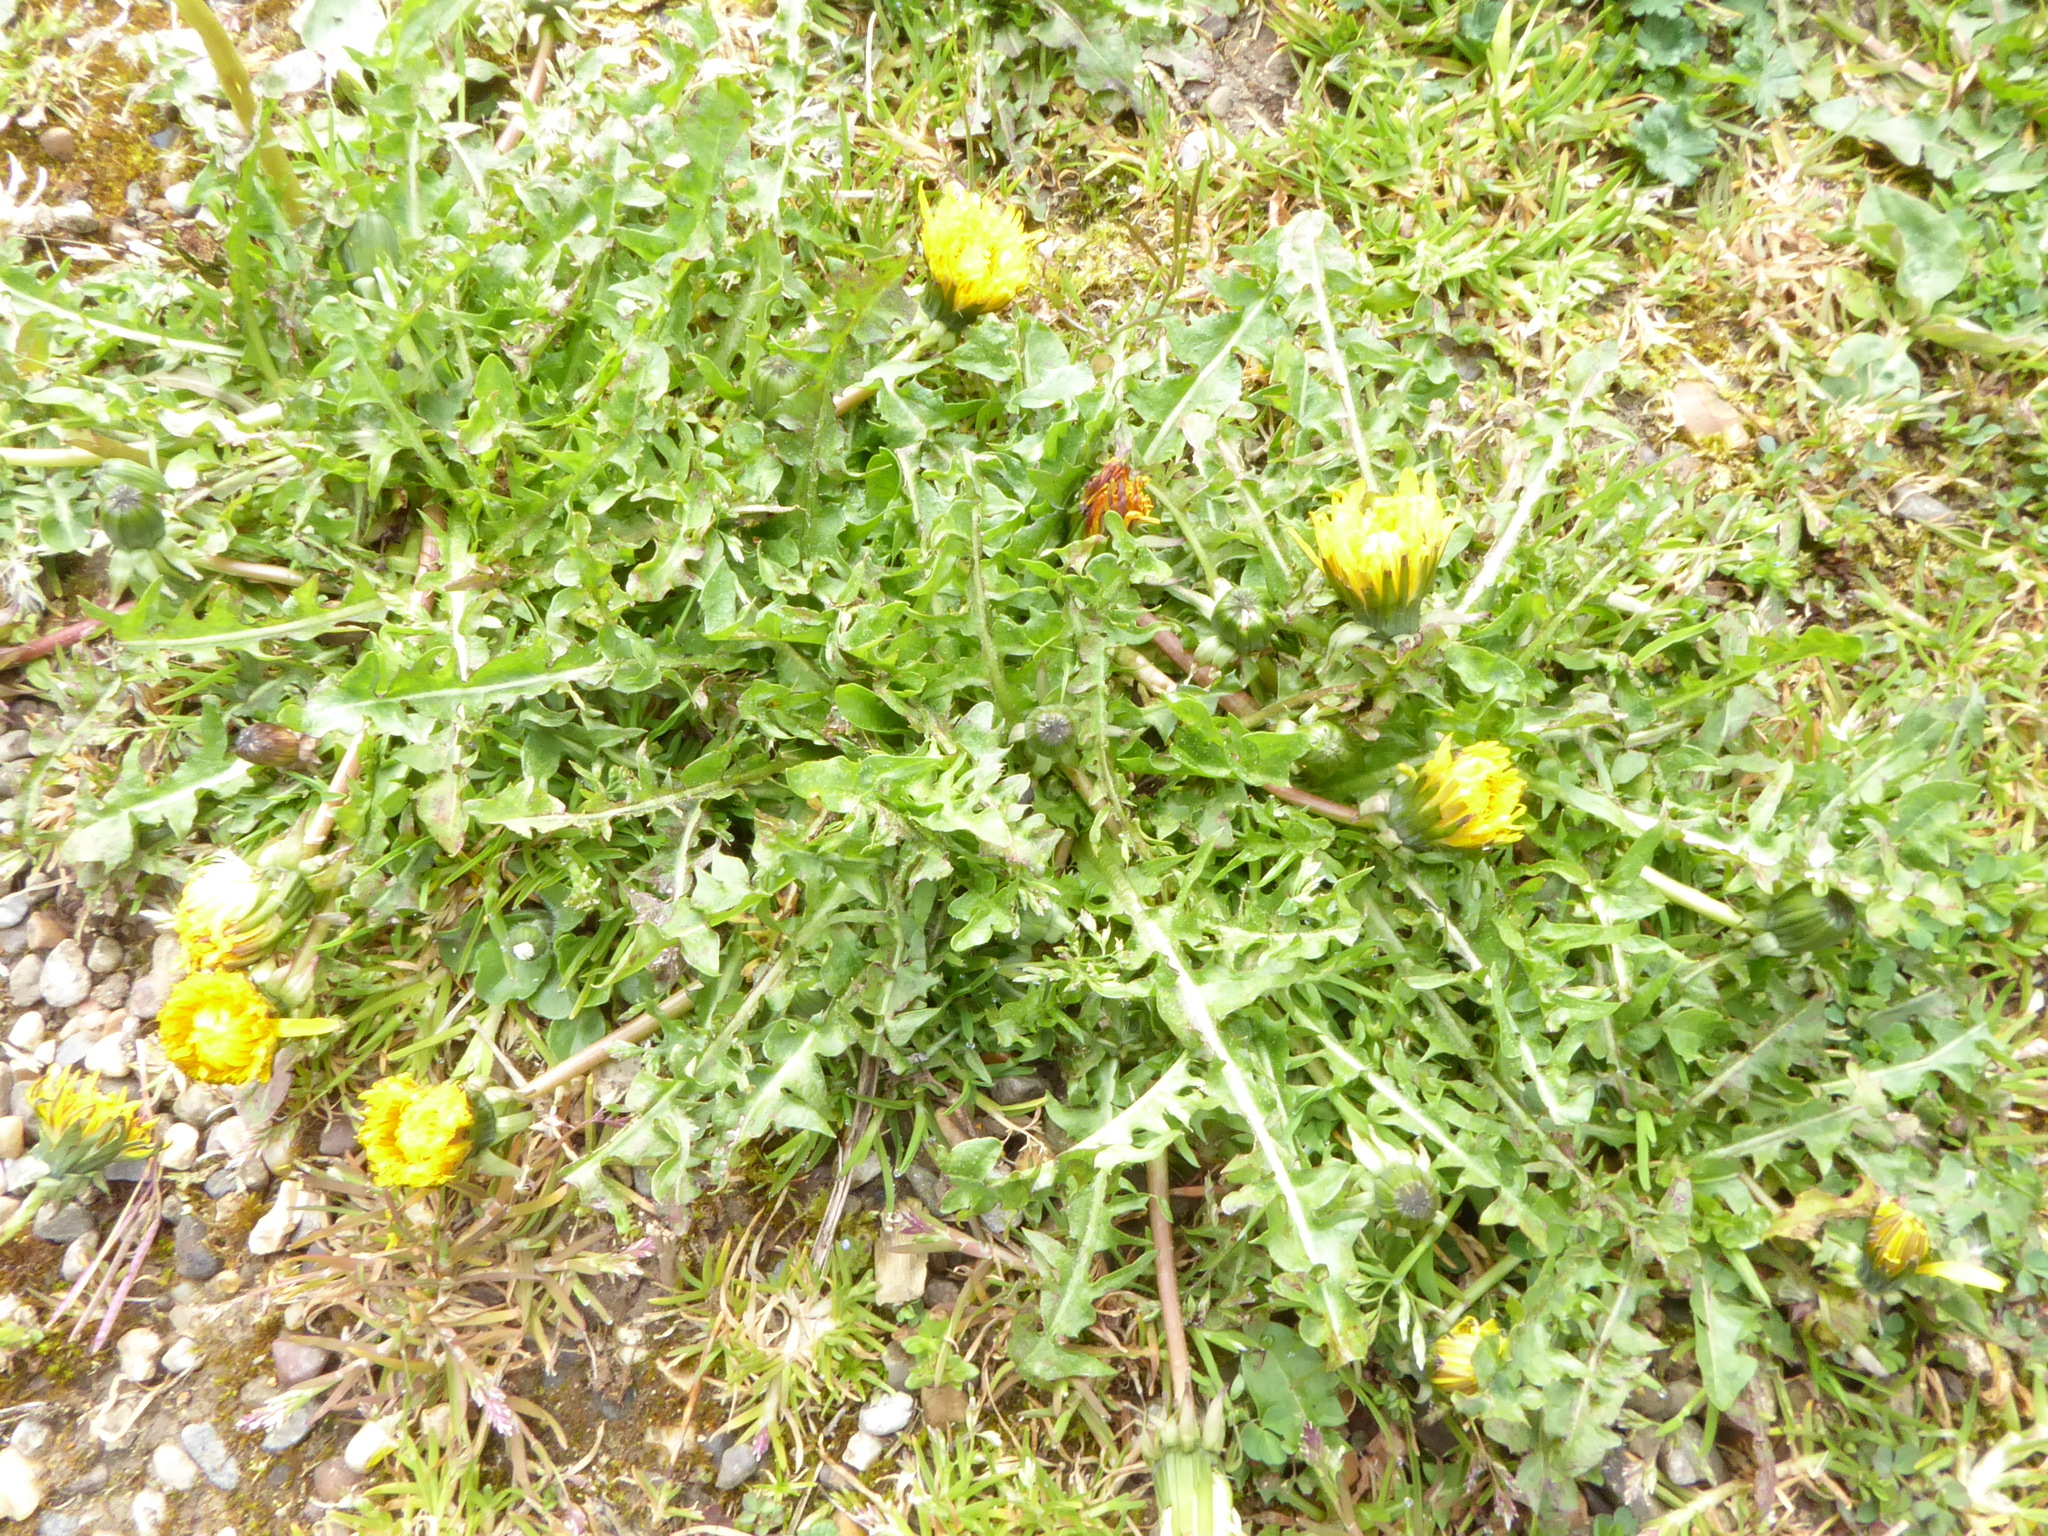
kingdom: Plantae
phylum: Tracheophyta
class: Magnoliopsida
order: Asterales
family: Asteraceae
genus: Taraxacum
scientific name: Taraxacum officinale
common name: Common dandelion
